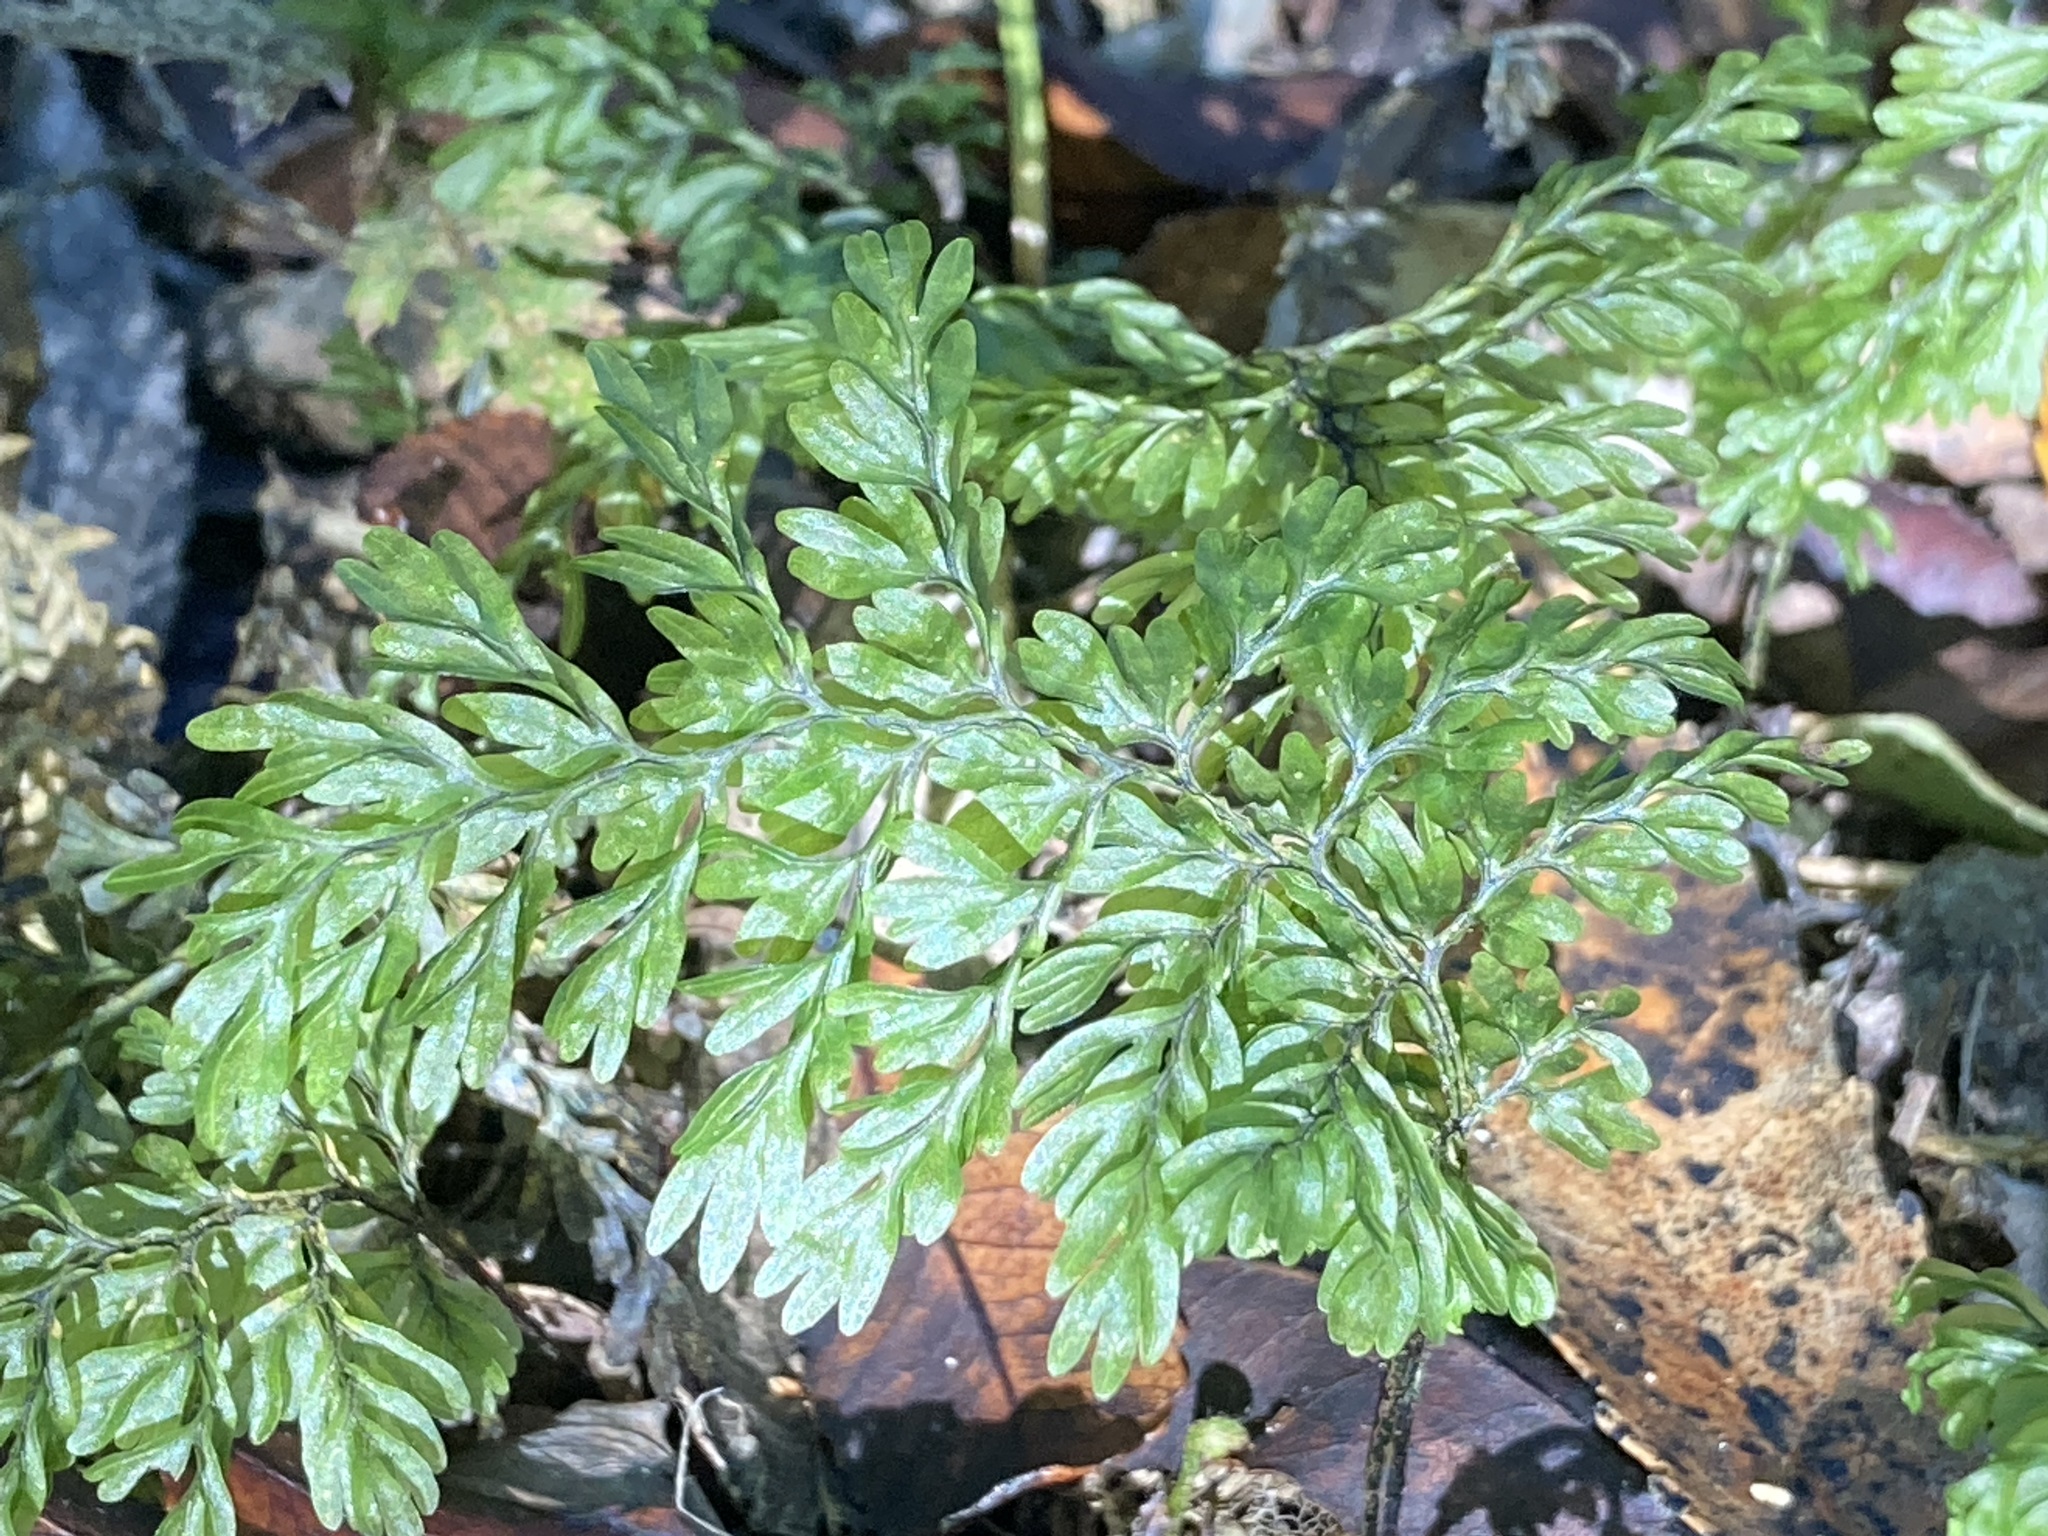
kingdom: Plantae
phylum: Tracheophyta
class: Polypodiopsida
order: Hymenophyllales
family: Hymenophyllaceae
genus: Hymenophyllum
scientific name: Hymenophyllum sanguinolentum
